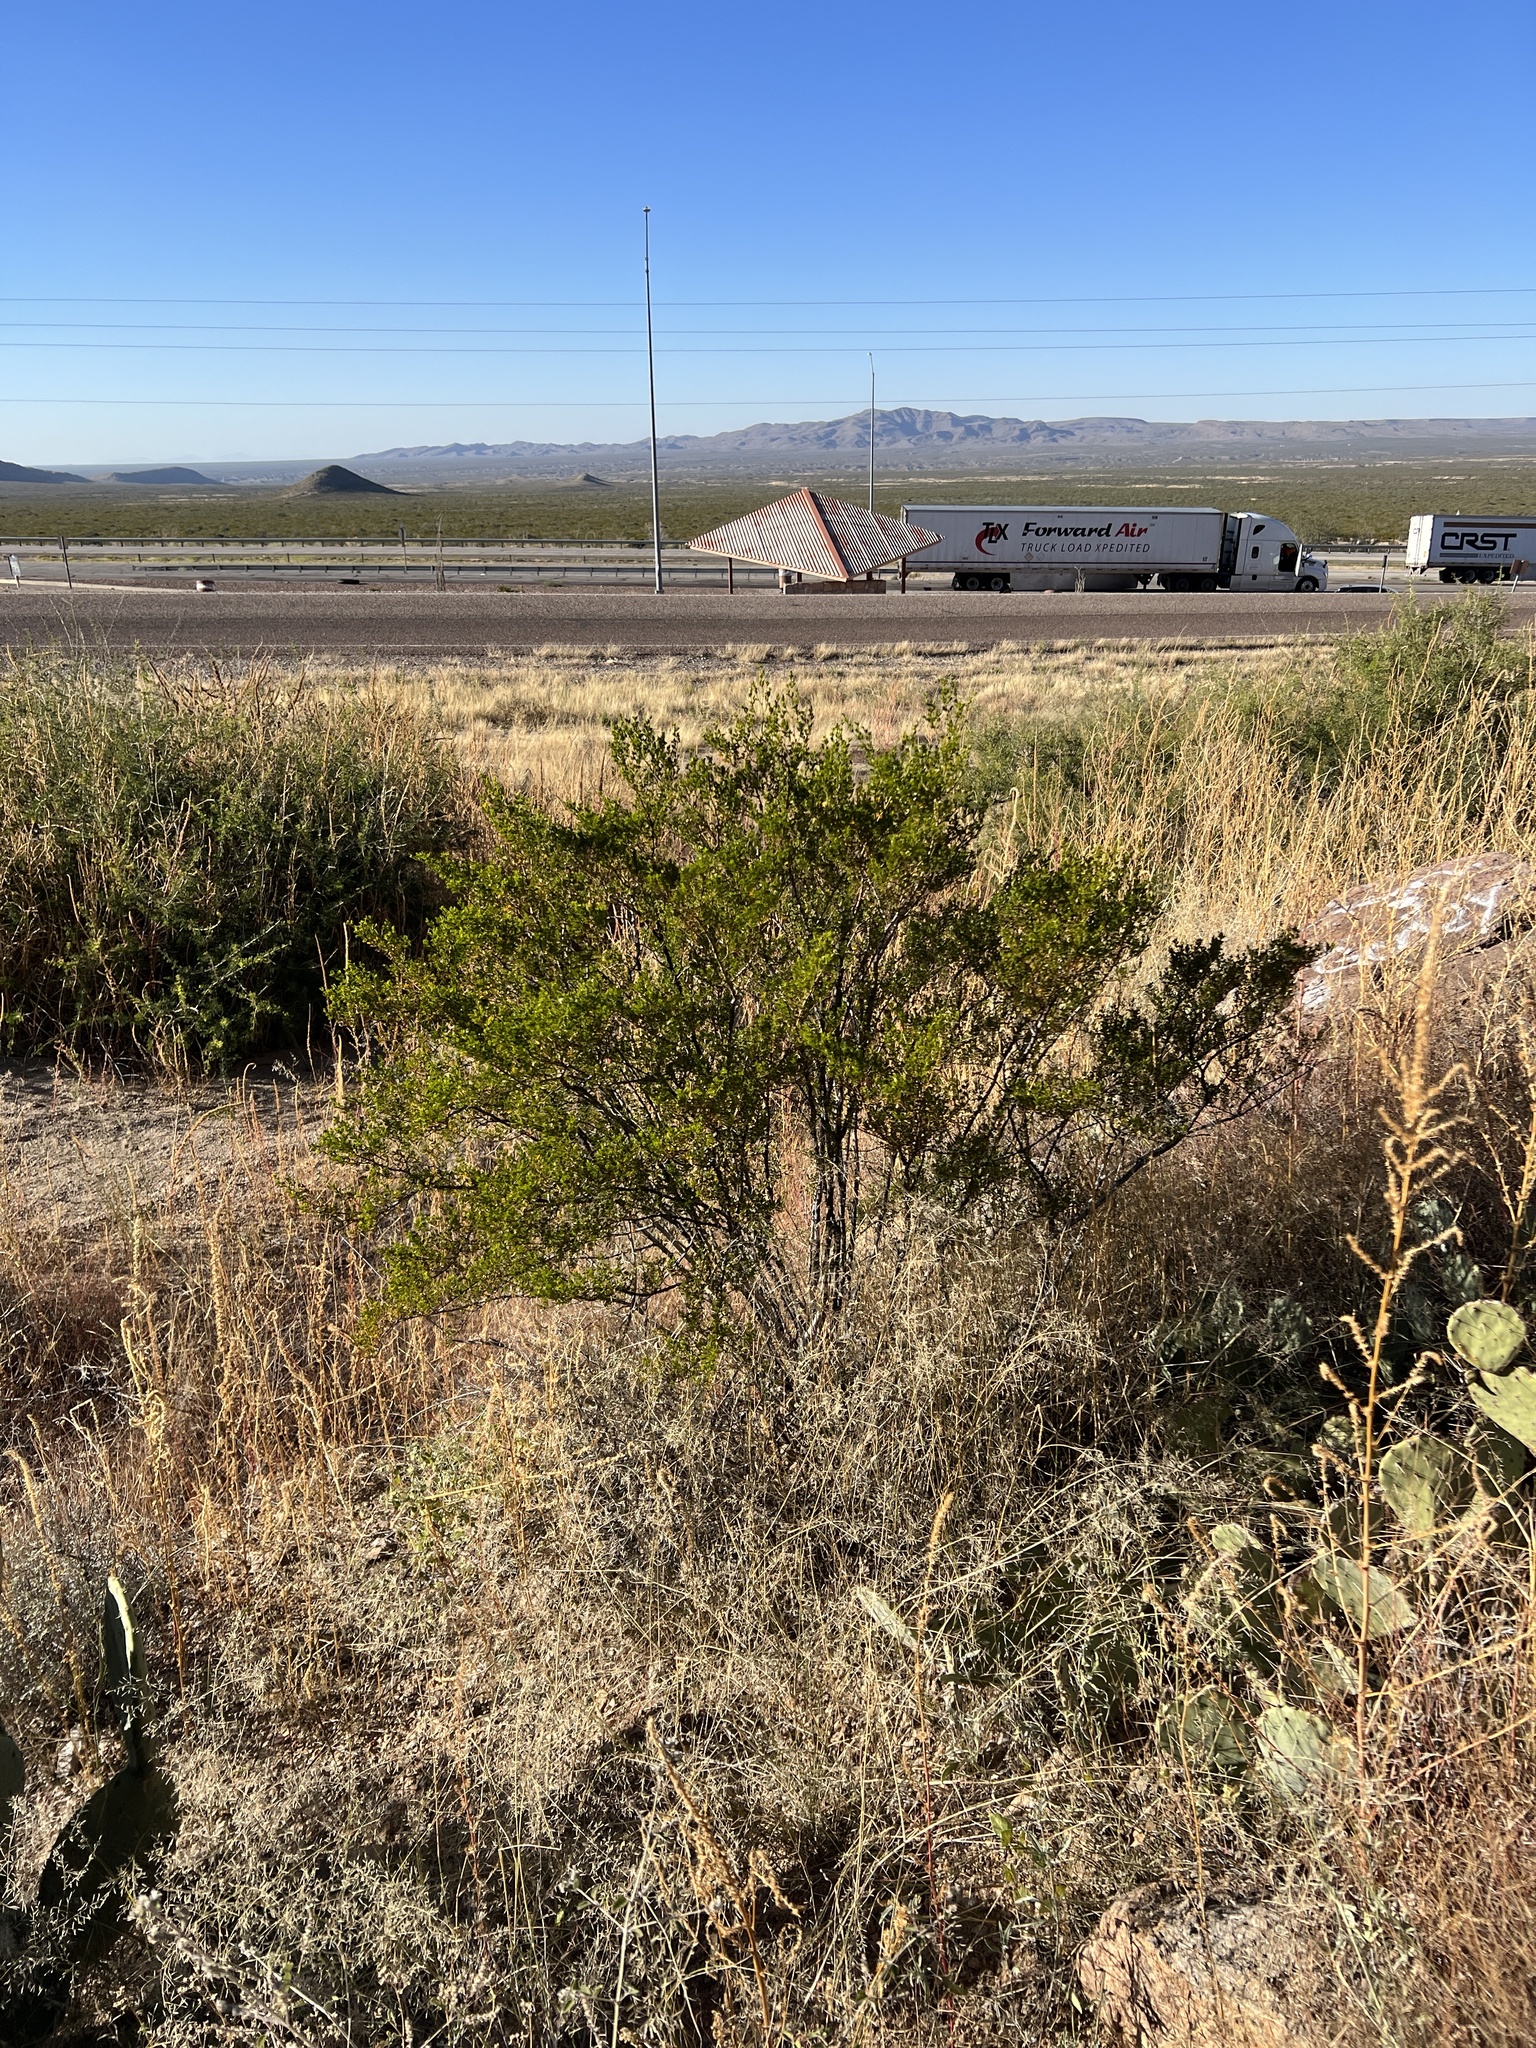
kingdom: Plantae
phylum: Tracheophyta
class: Magnoliopsida
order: Zygophyllales
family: Zygophyllaceae
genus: Larrea
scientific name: Larrea tridentata
